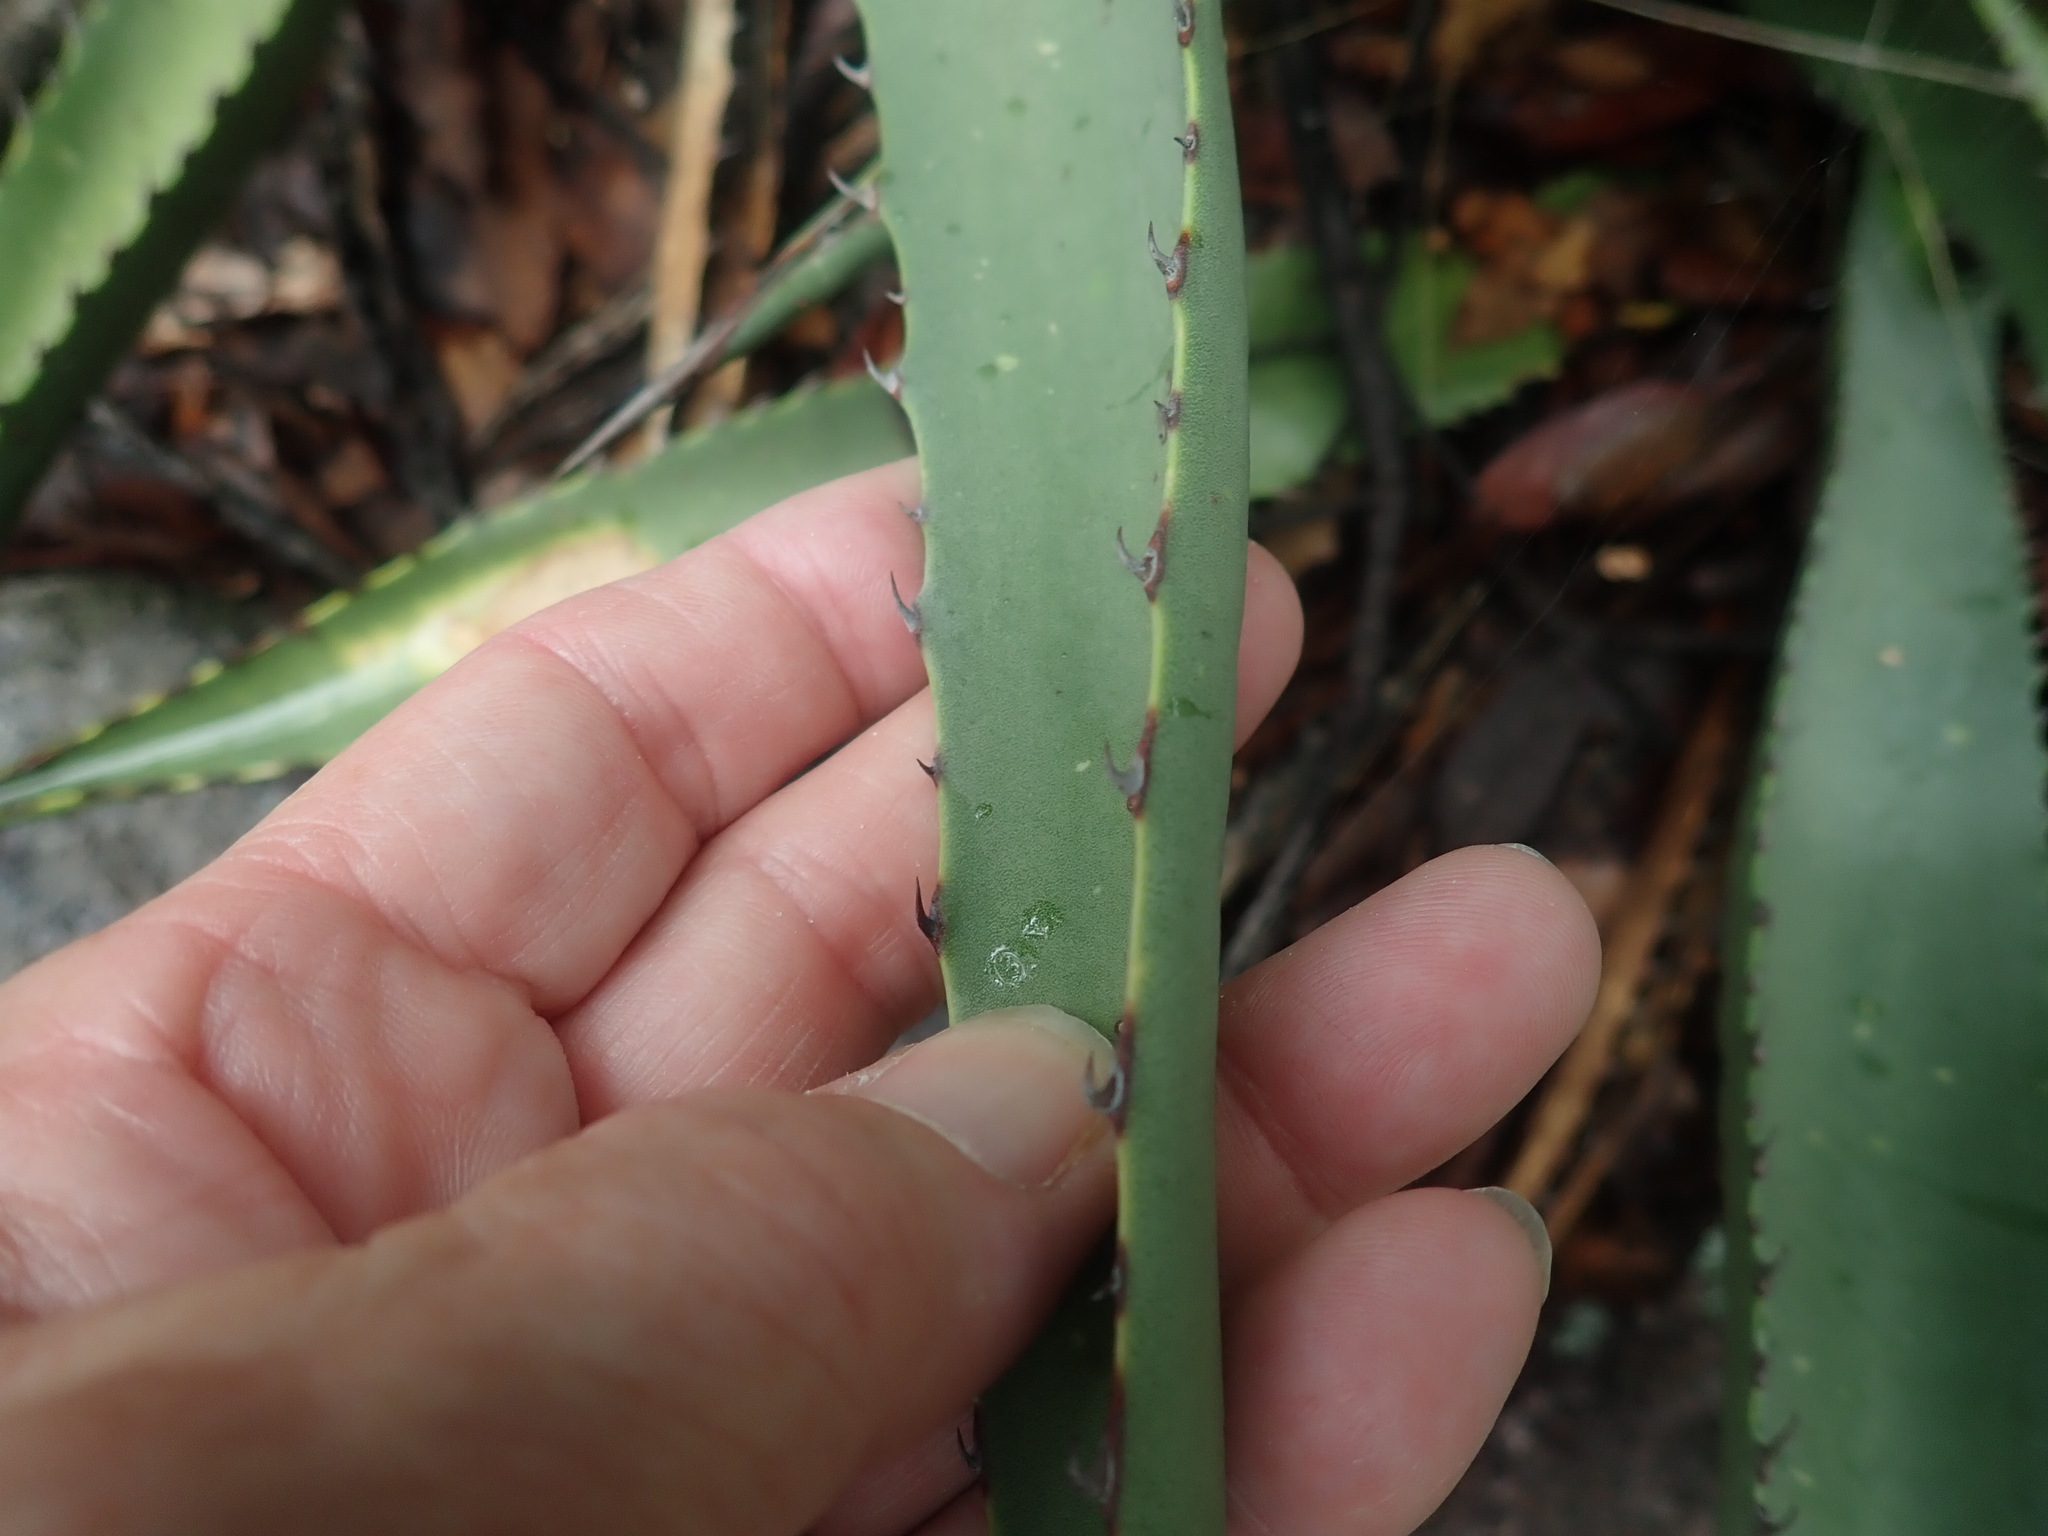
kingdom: Plantae
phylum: Tracheophyta
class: Liliopsida
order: Asparagales
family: Asparagaceae
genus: Agave
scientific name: Agave palmeri
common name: Palmer agave
